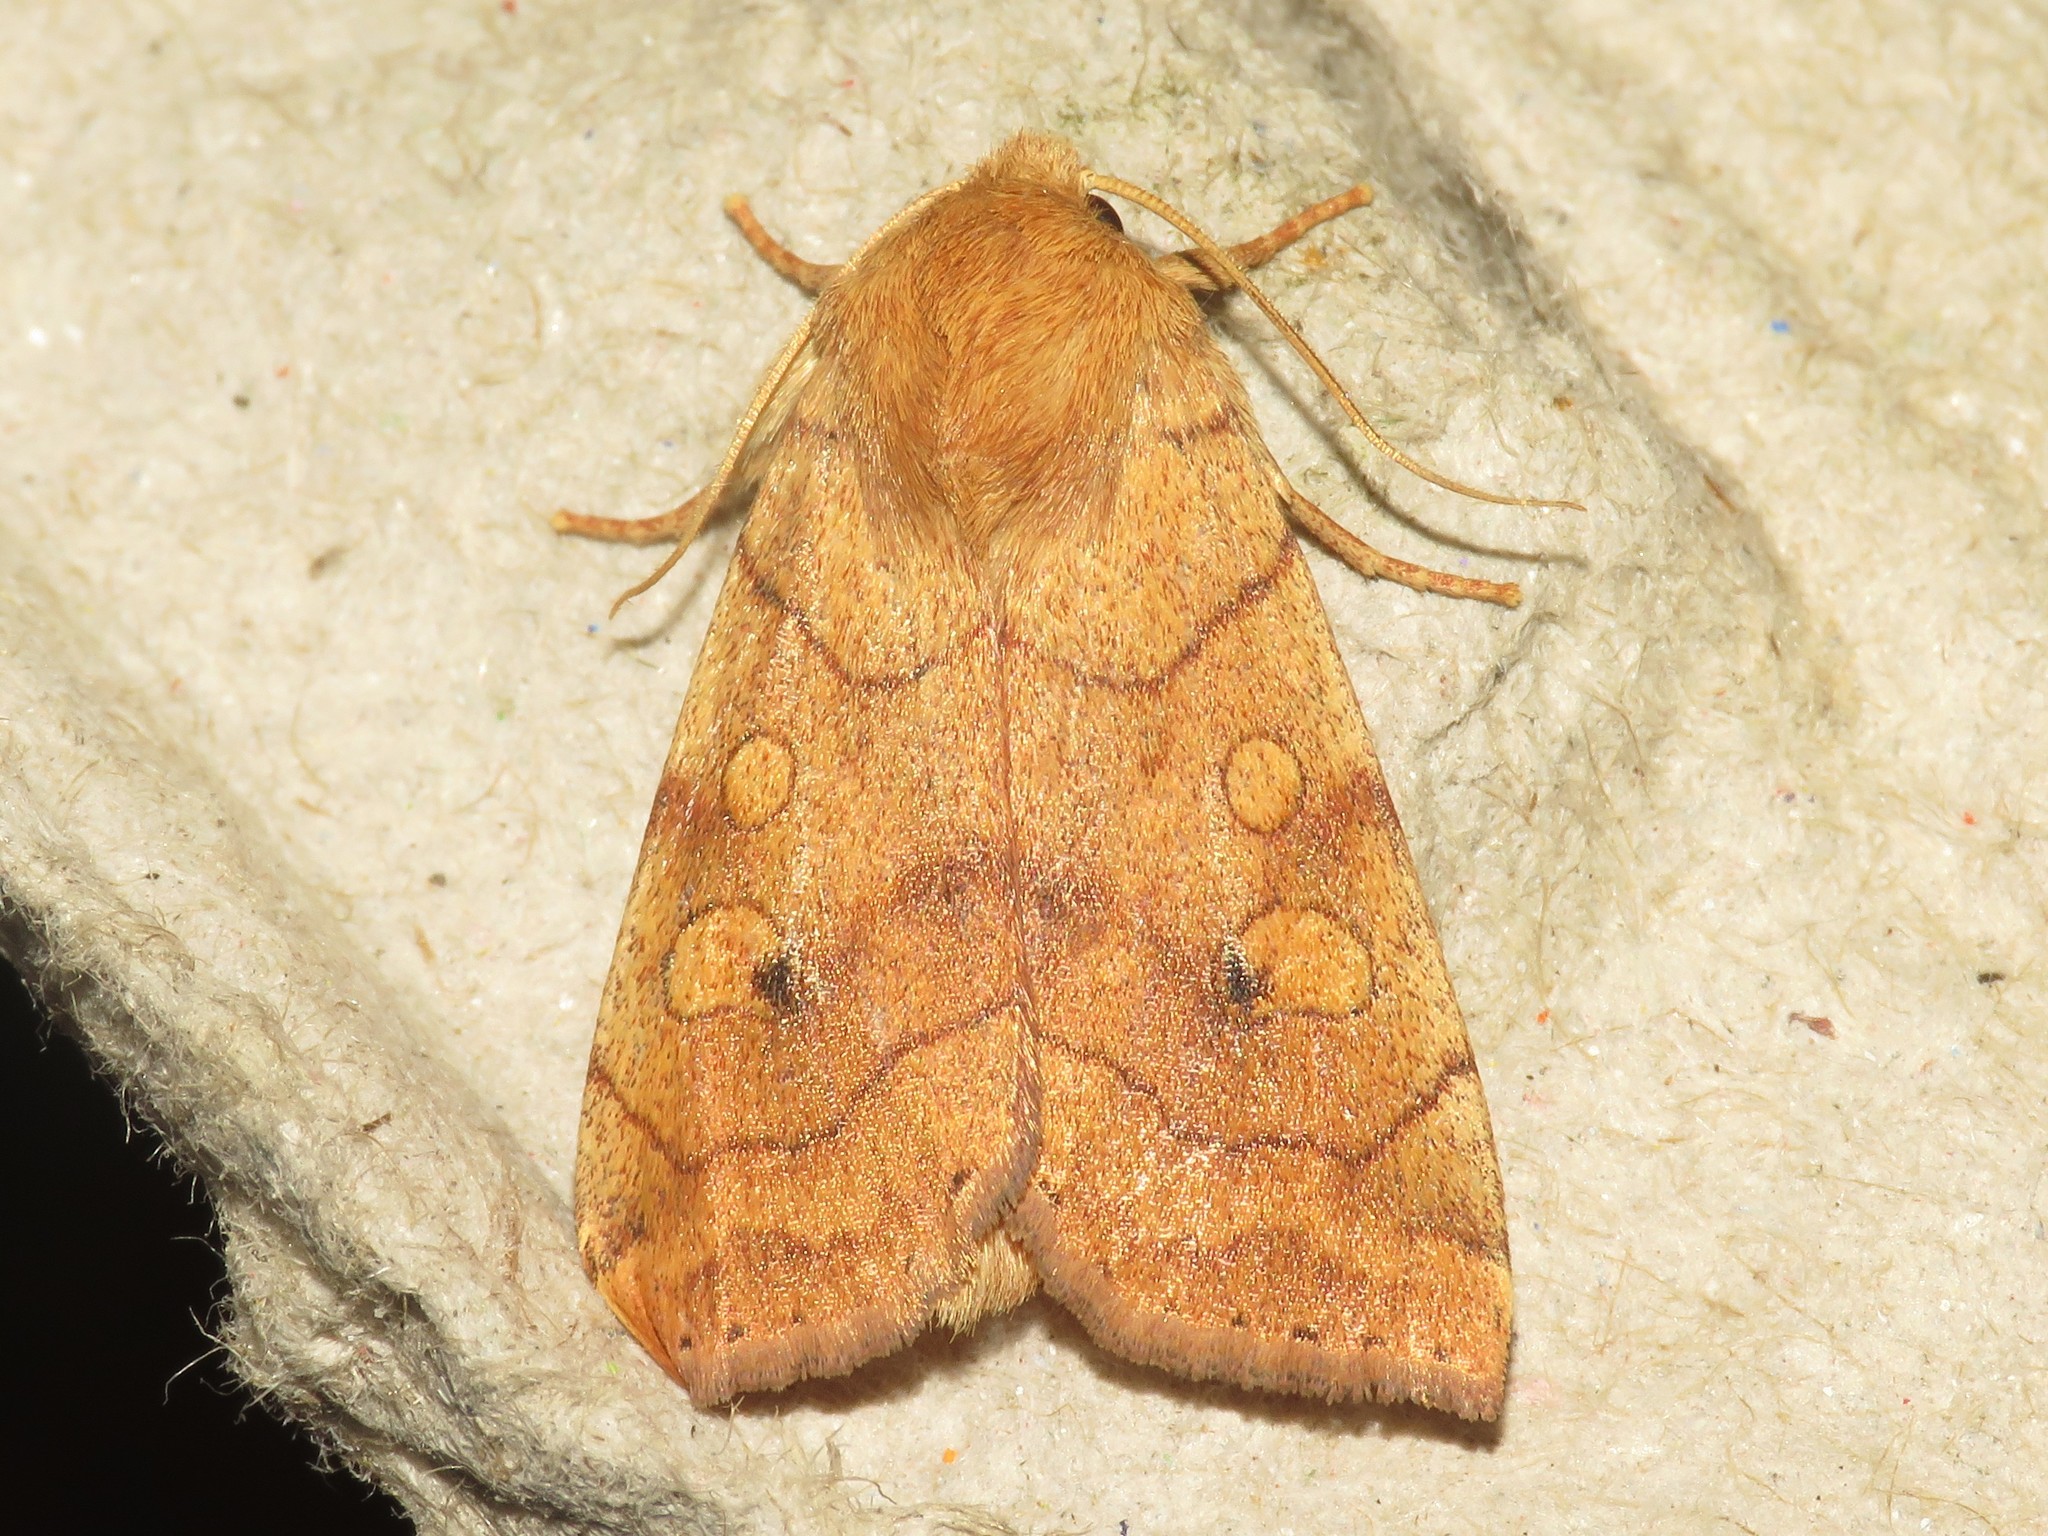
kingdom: Animalia
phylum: Arthropoda
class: Insecta
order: Lepidoptera
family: Noctuidae
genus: Enargia
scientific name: Enargia fausta
